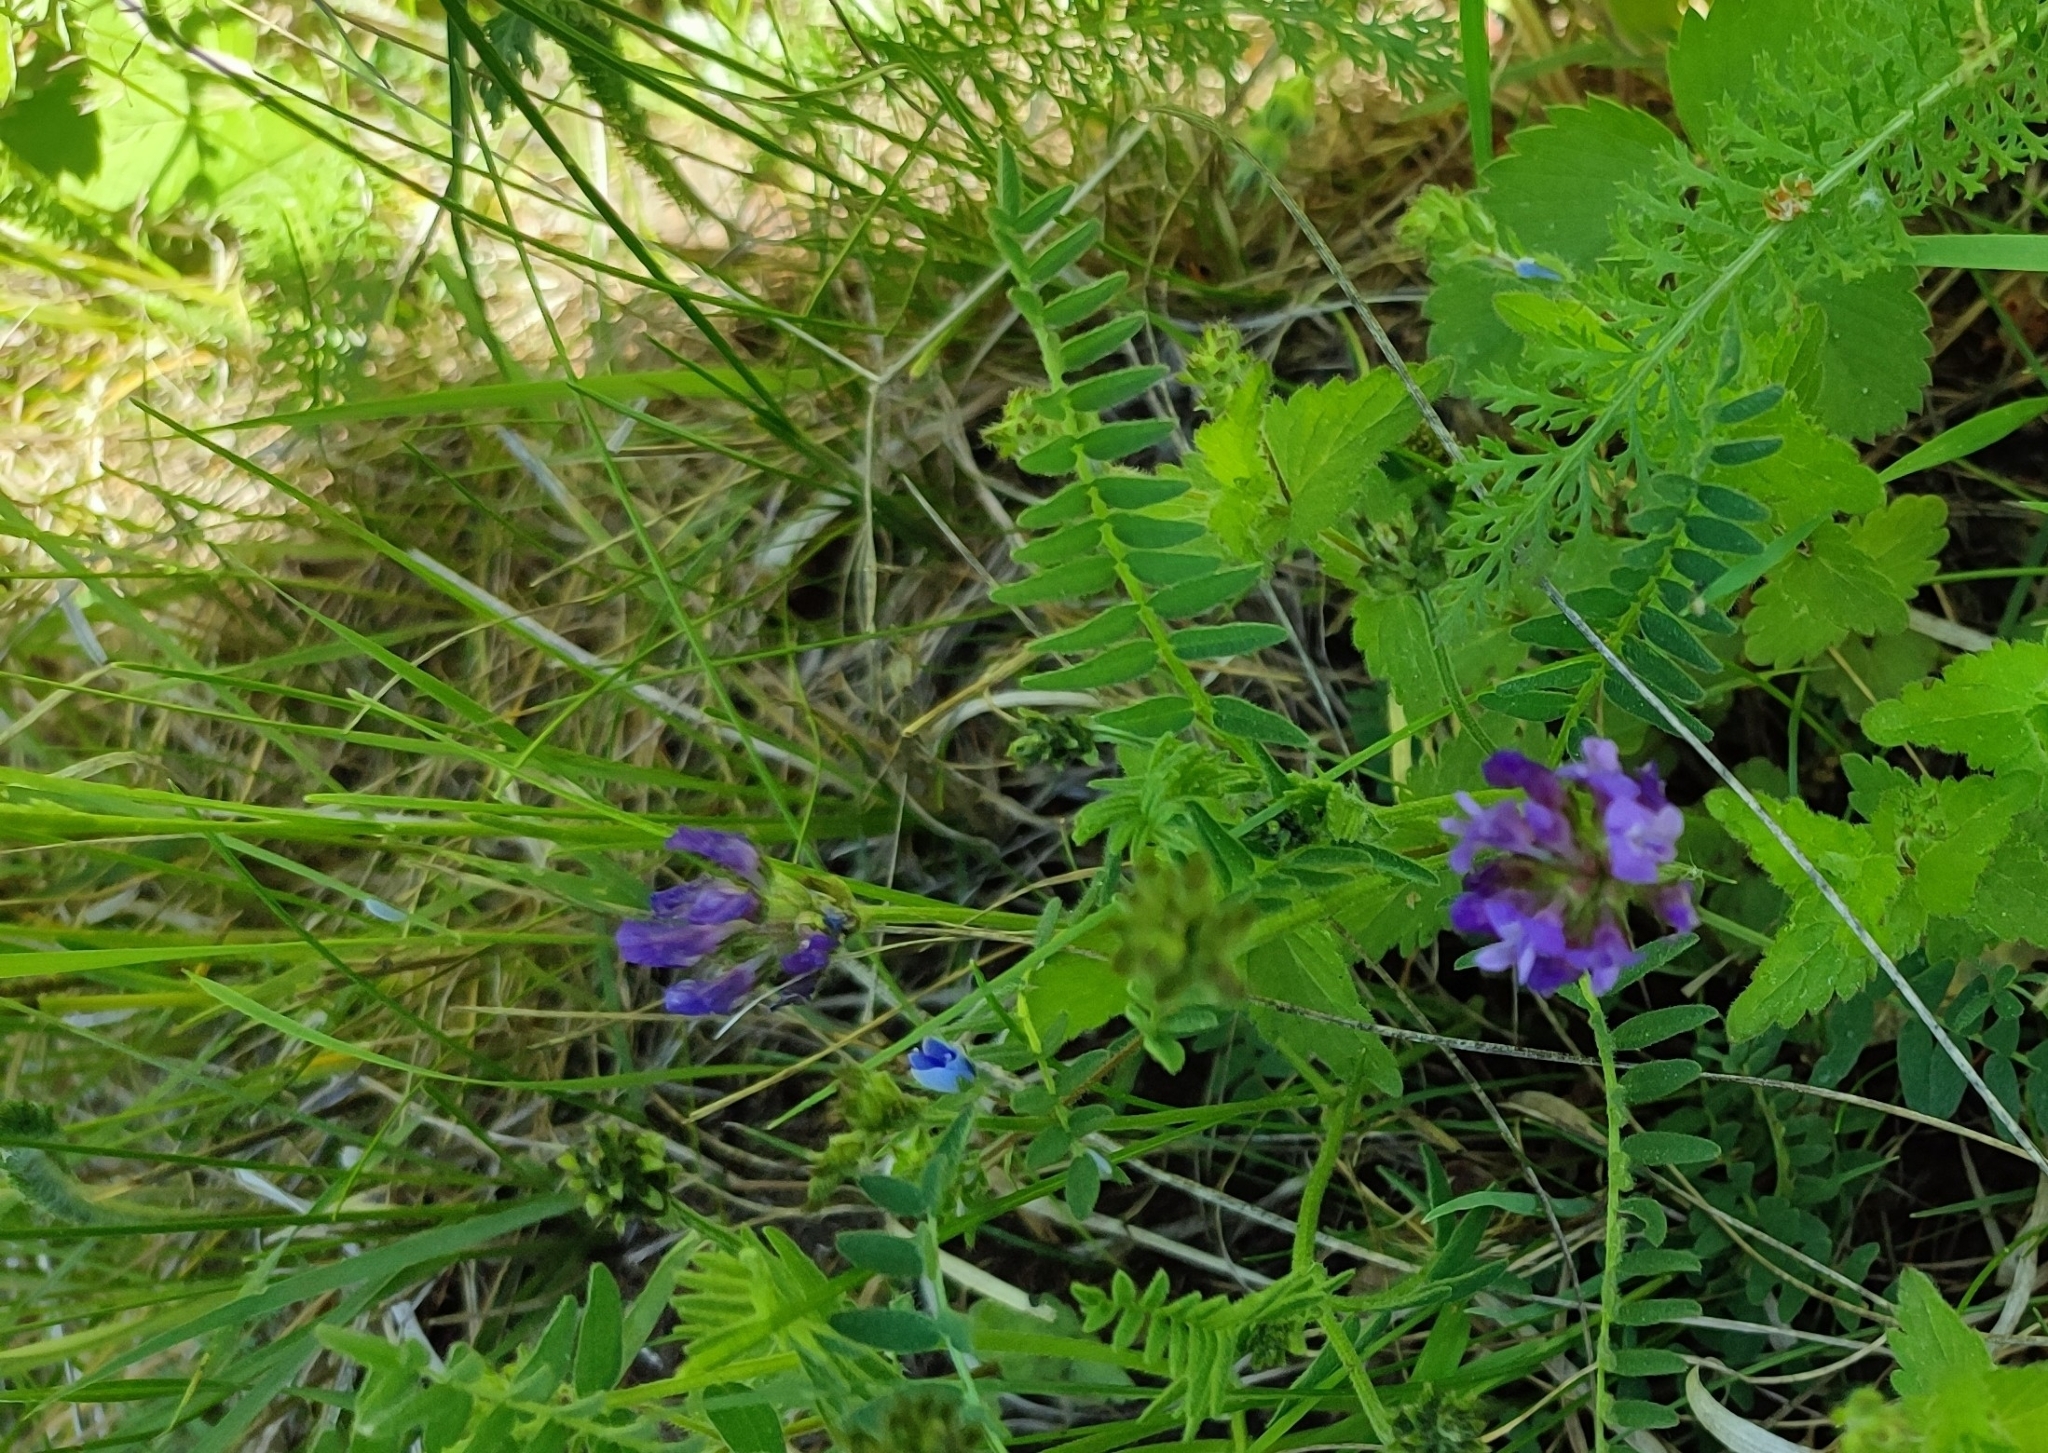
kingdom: Plantae
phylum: Tracheophyta
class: Magnoliopsida
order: Fabales
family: Fabaceae
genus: Astragalus
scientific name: Astragalus danicus
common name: Purple milk-vetch
